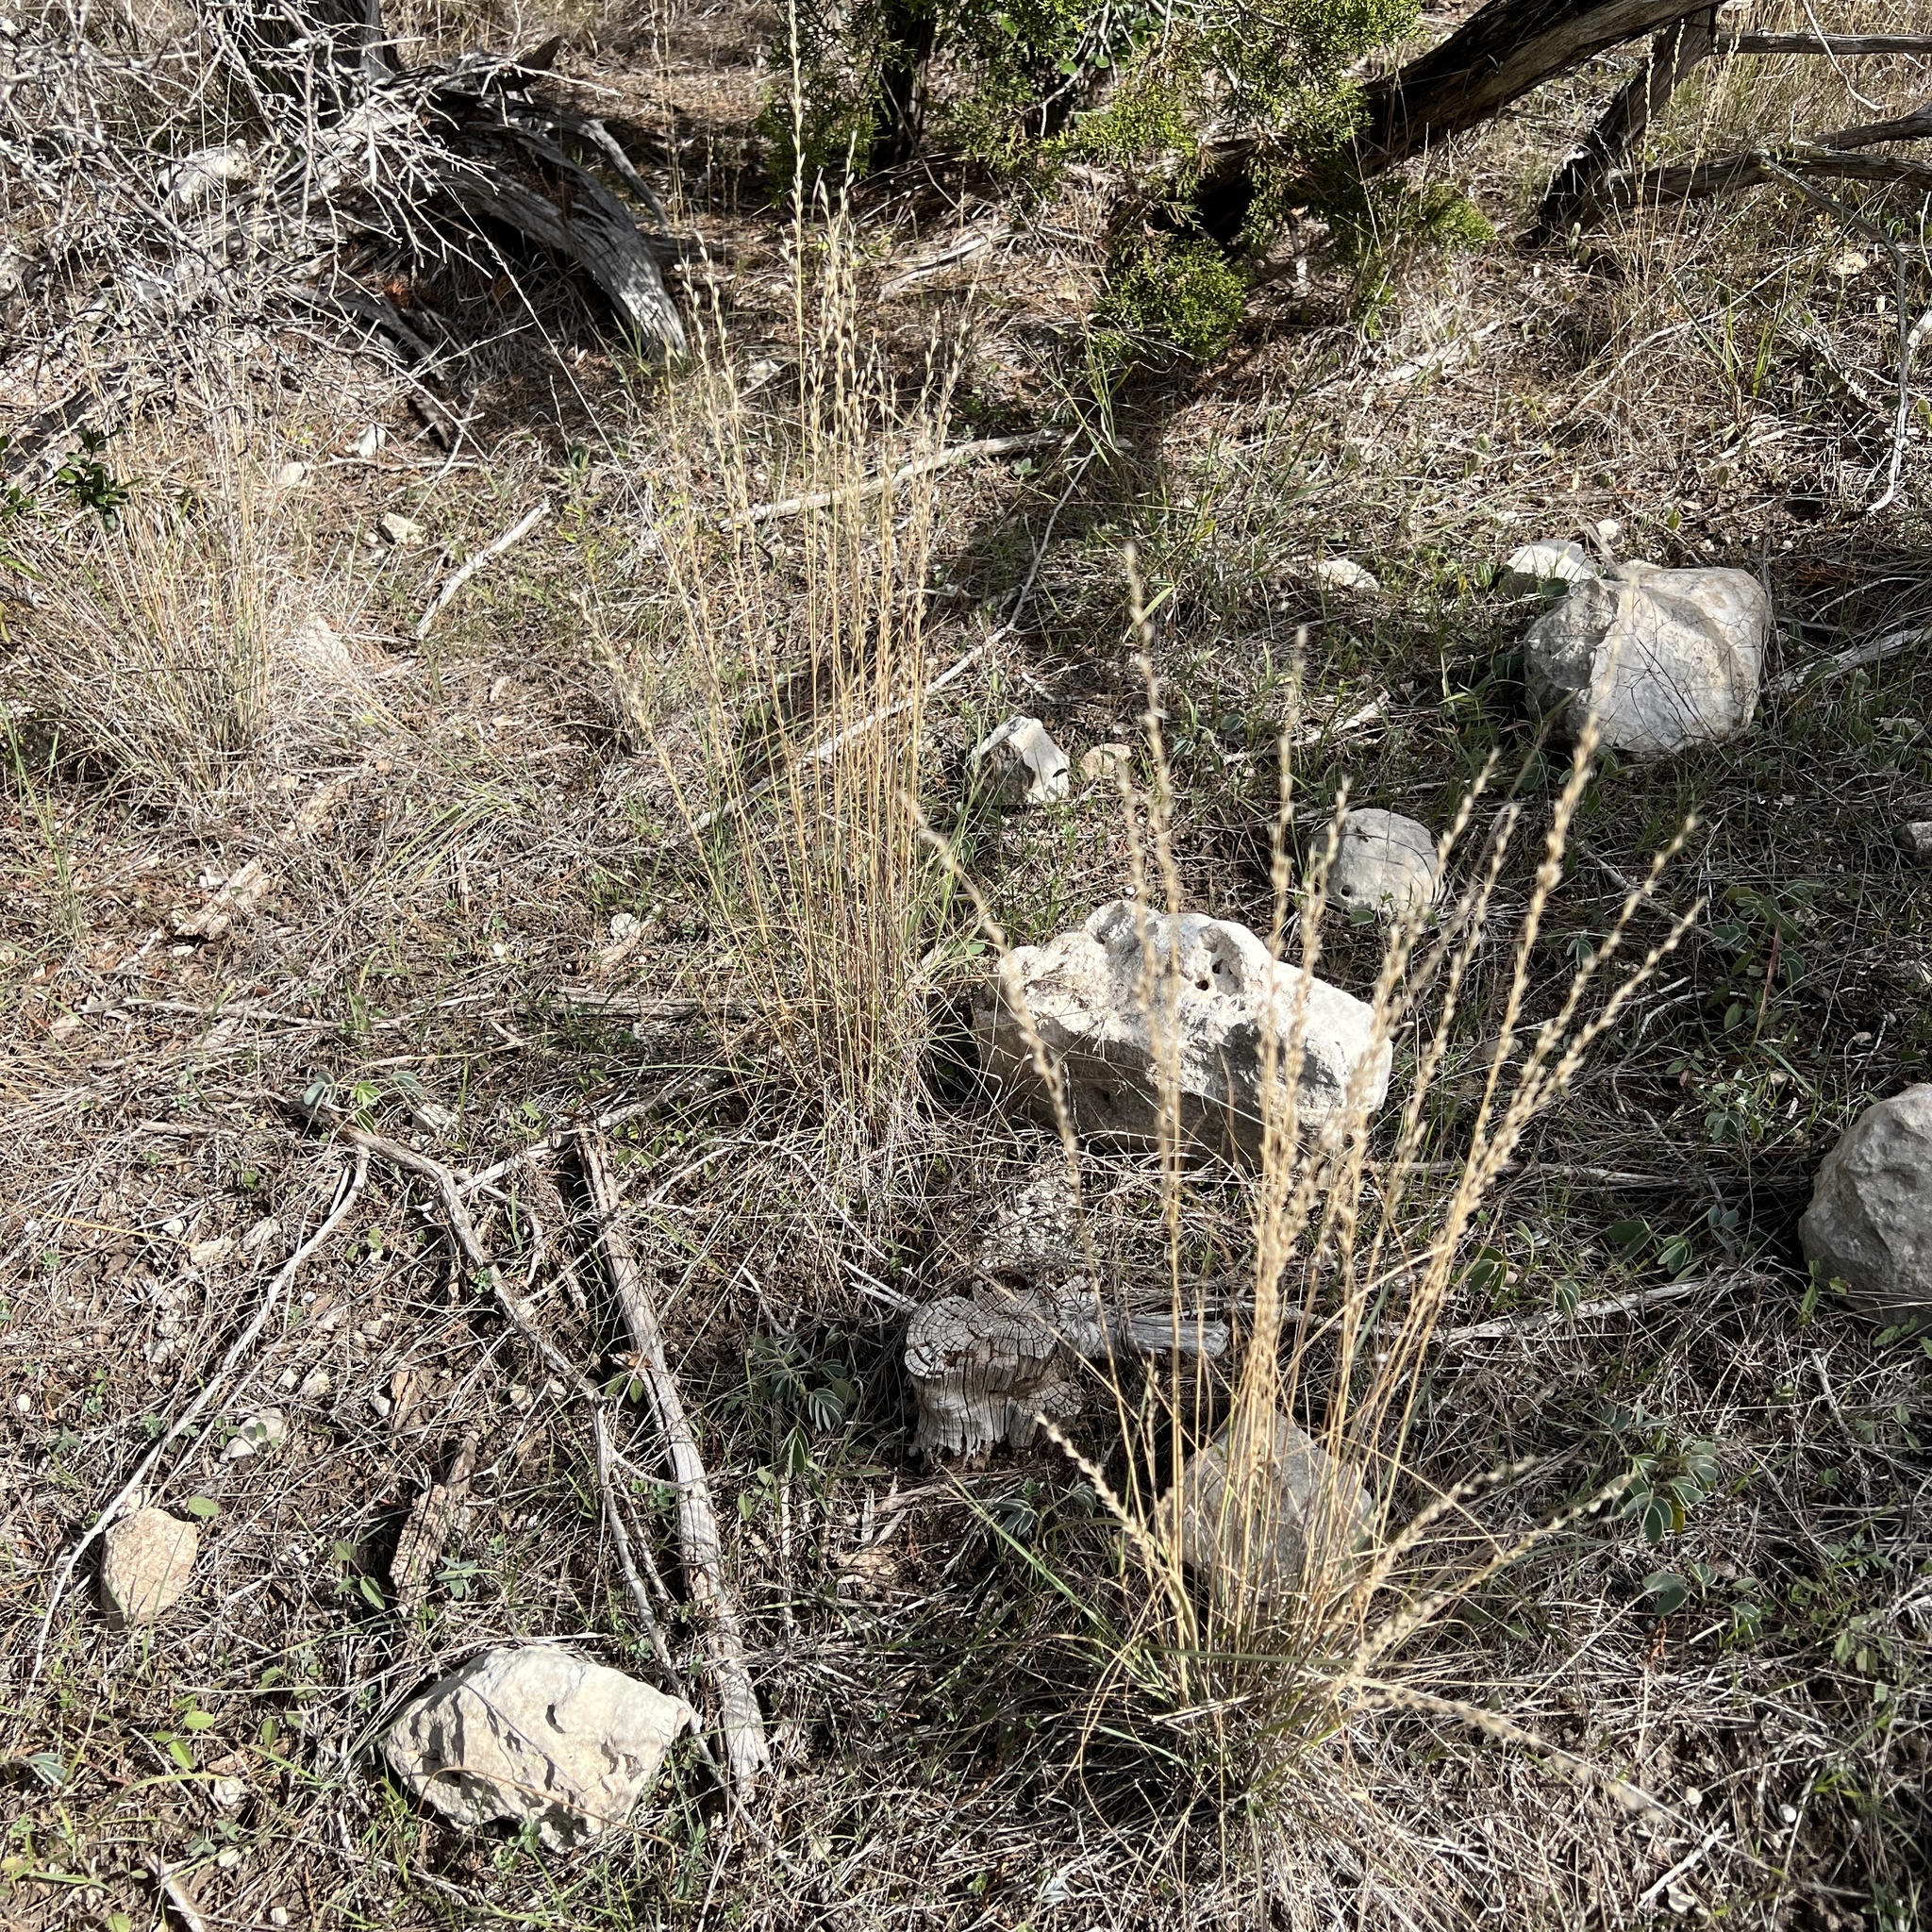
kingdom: Plantae
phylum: Tracheophyta
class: Liliopsida
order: Poales
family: Poaceae
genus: Tridentopsis
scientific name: Tridentopsis mutica
